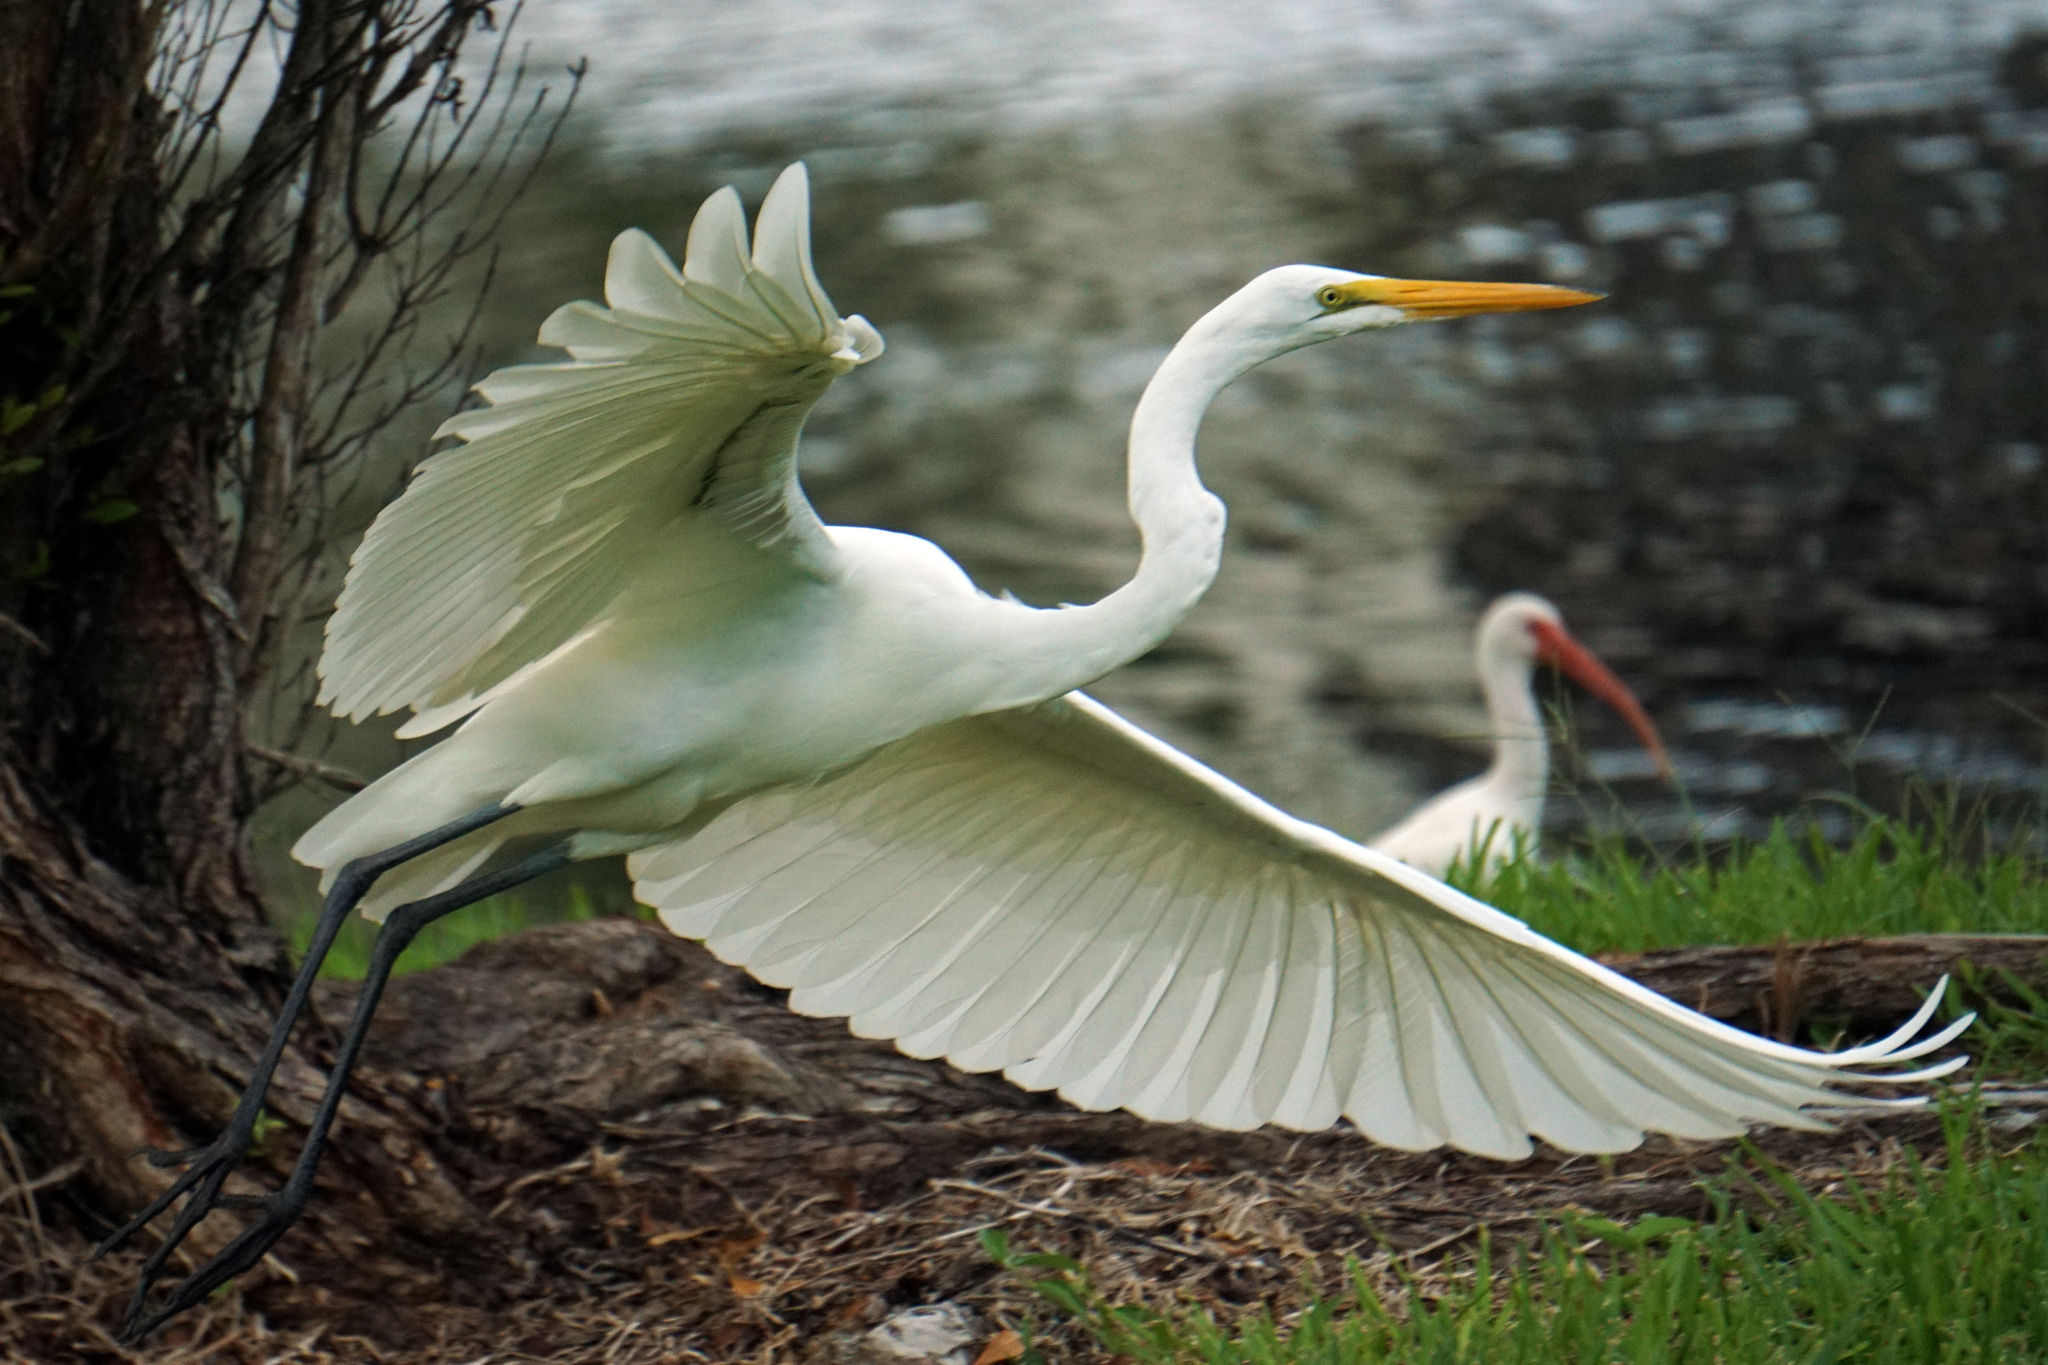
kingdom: Animalia
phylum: Chordata
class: Aves
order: Pelecaniformes
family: Ardeidae
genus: Ardea
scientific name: Ardea alba
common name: Great egret
